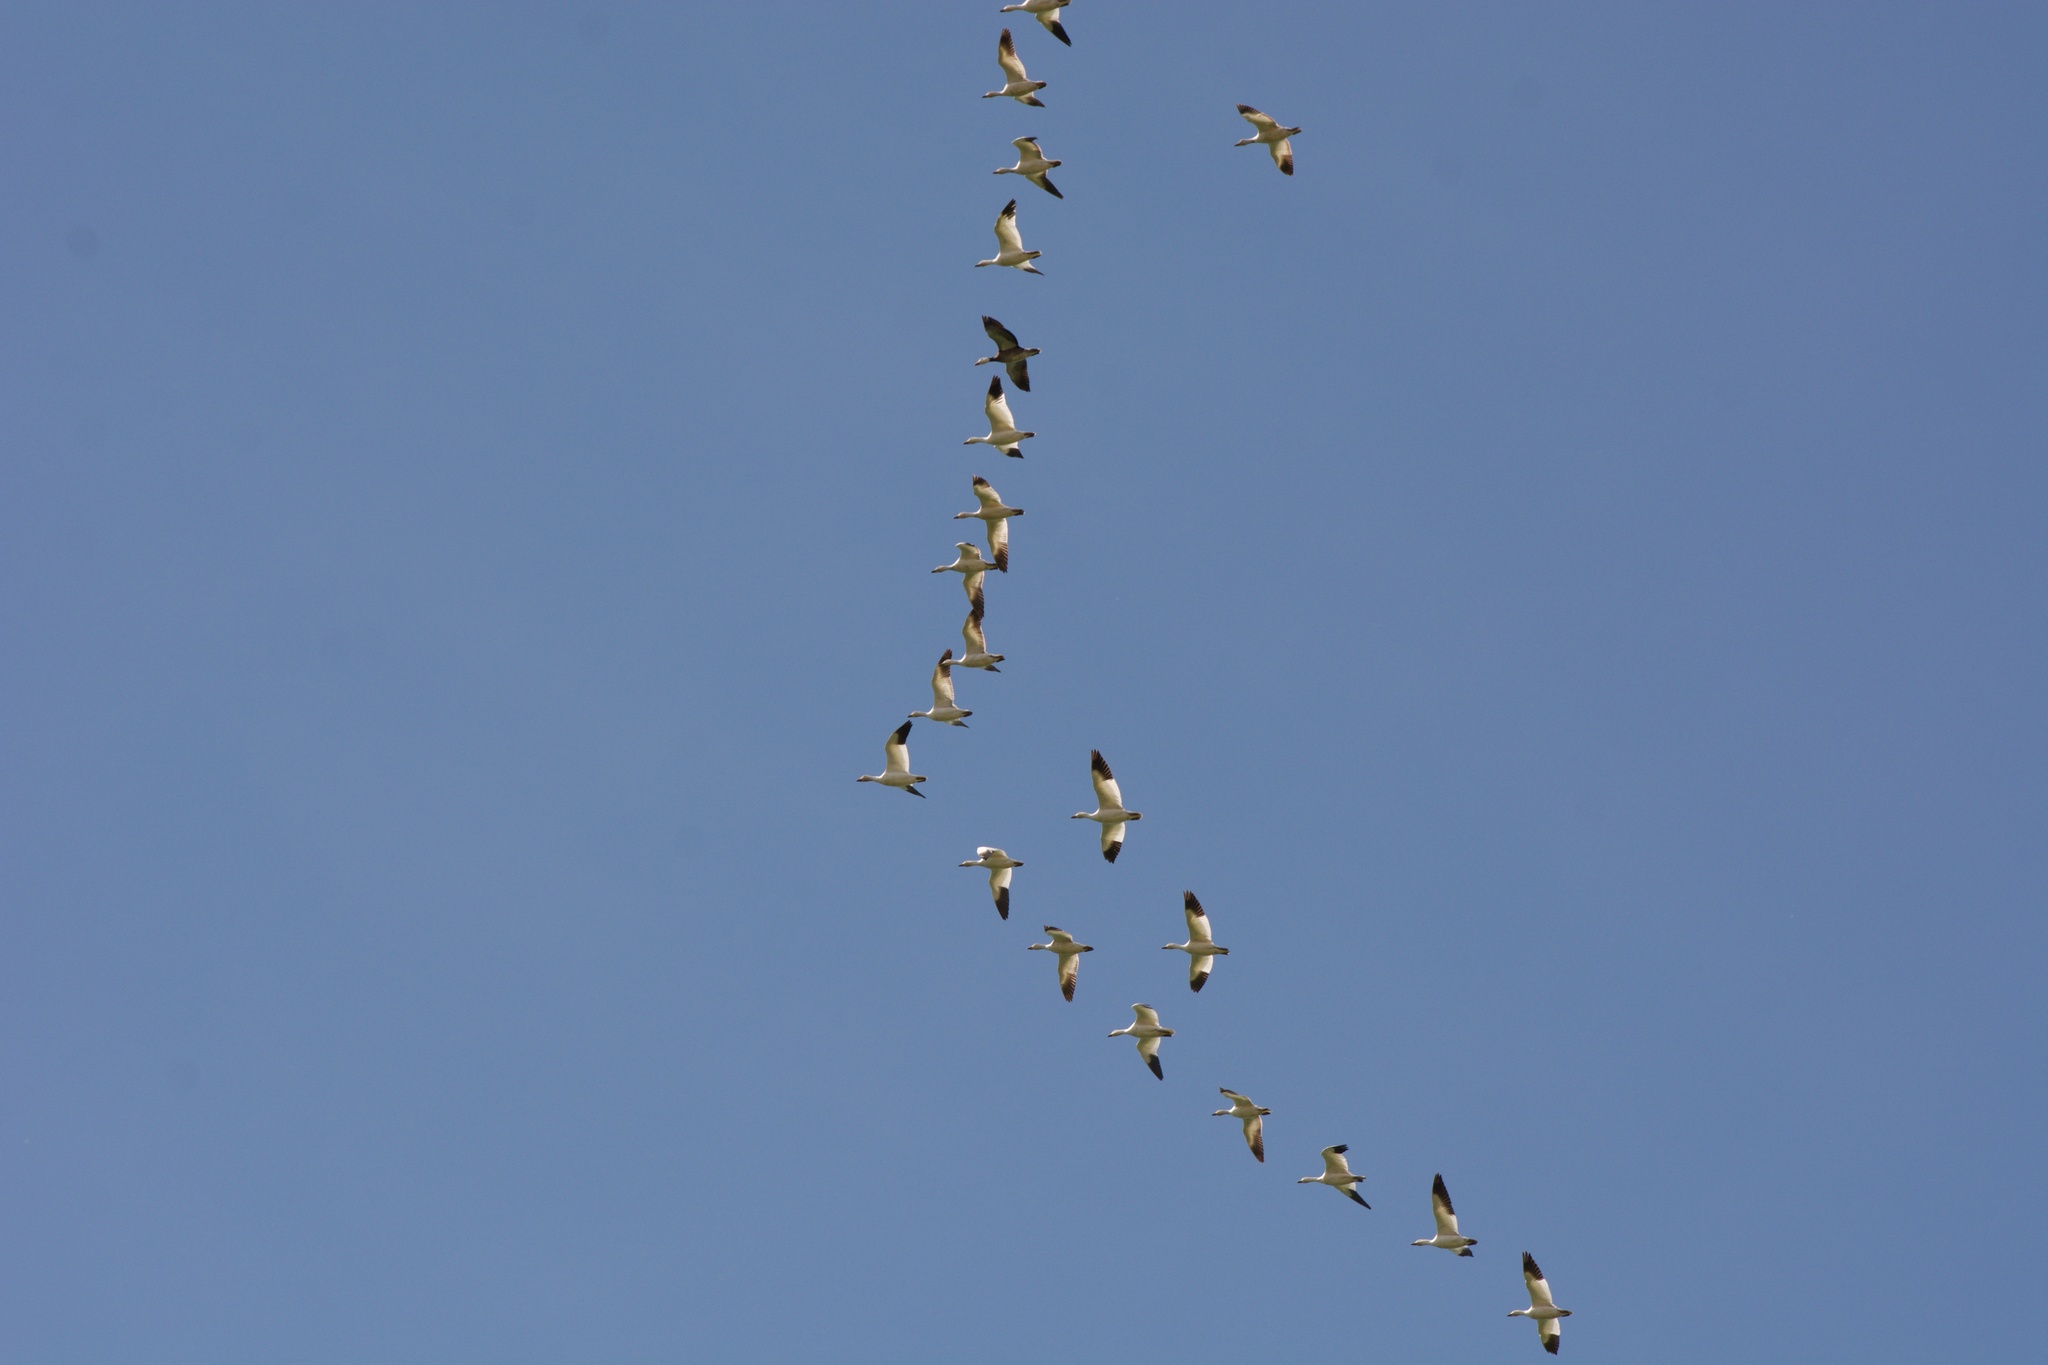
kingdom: Animalia
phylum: Chordata
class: Aves
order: Anseriformes
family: Anatidae
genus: Anser
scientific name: Anser caerulescens
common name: Snow goose
